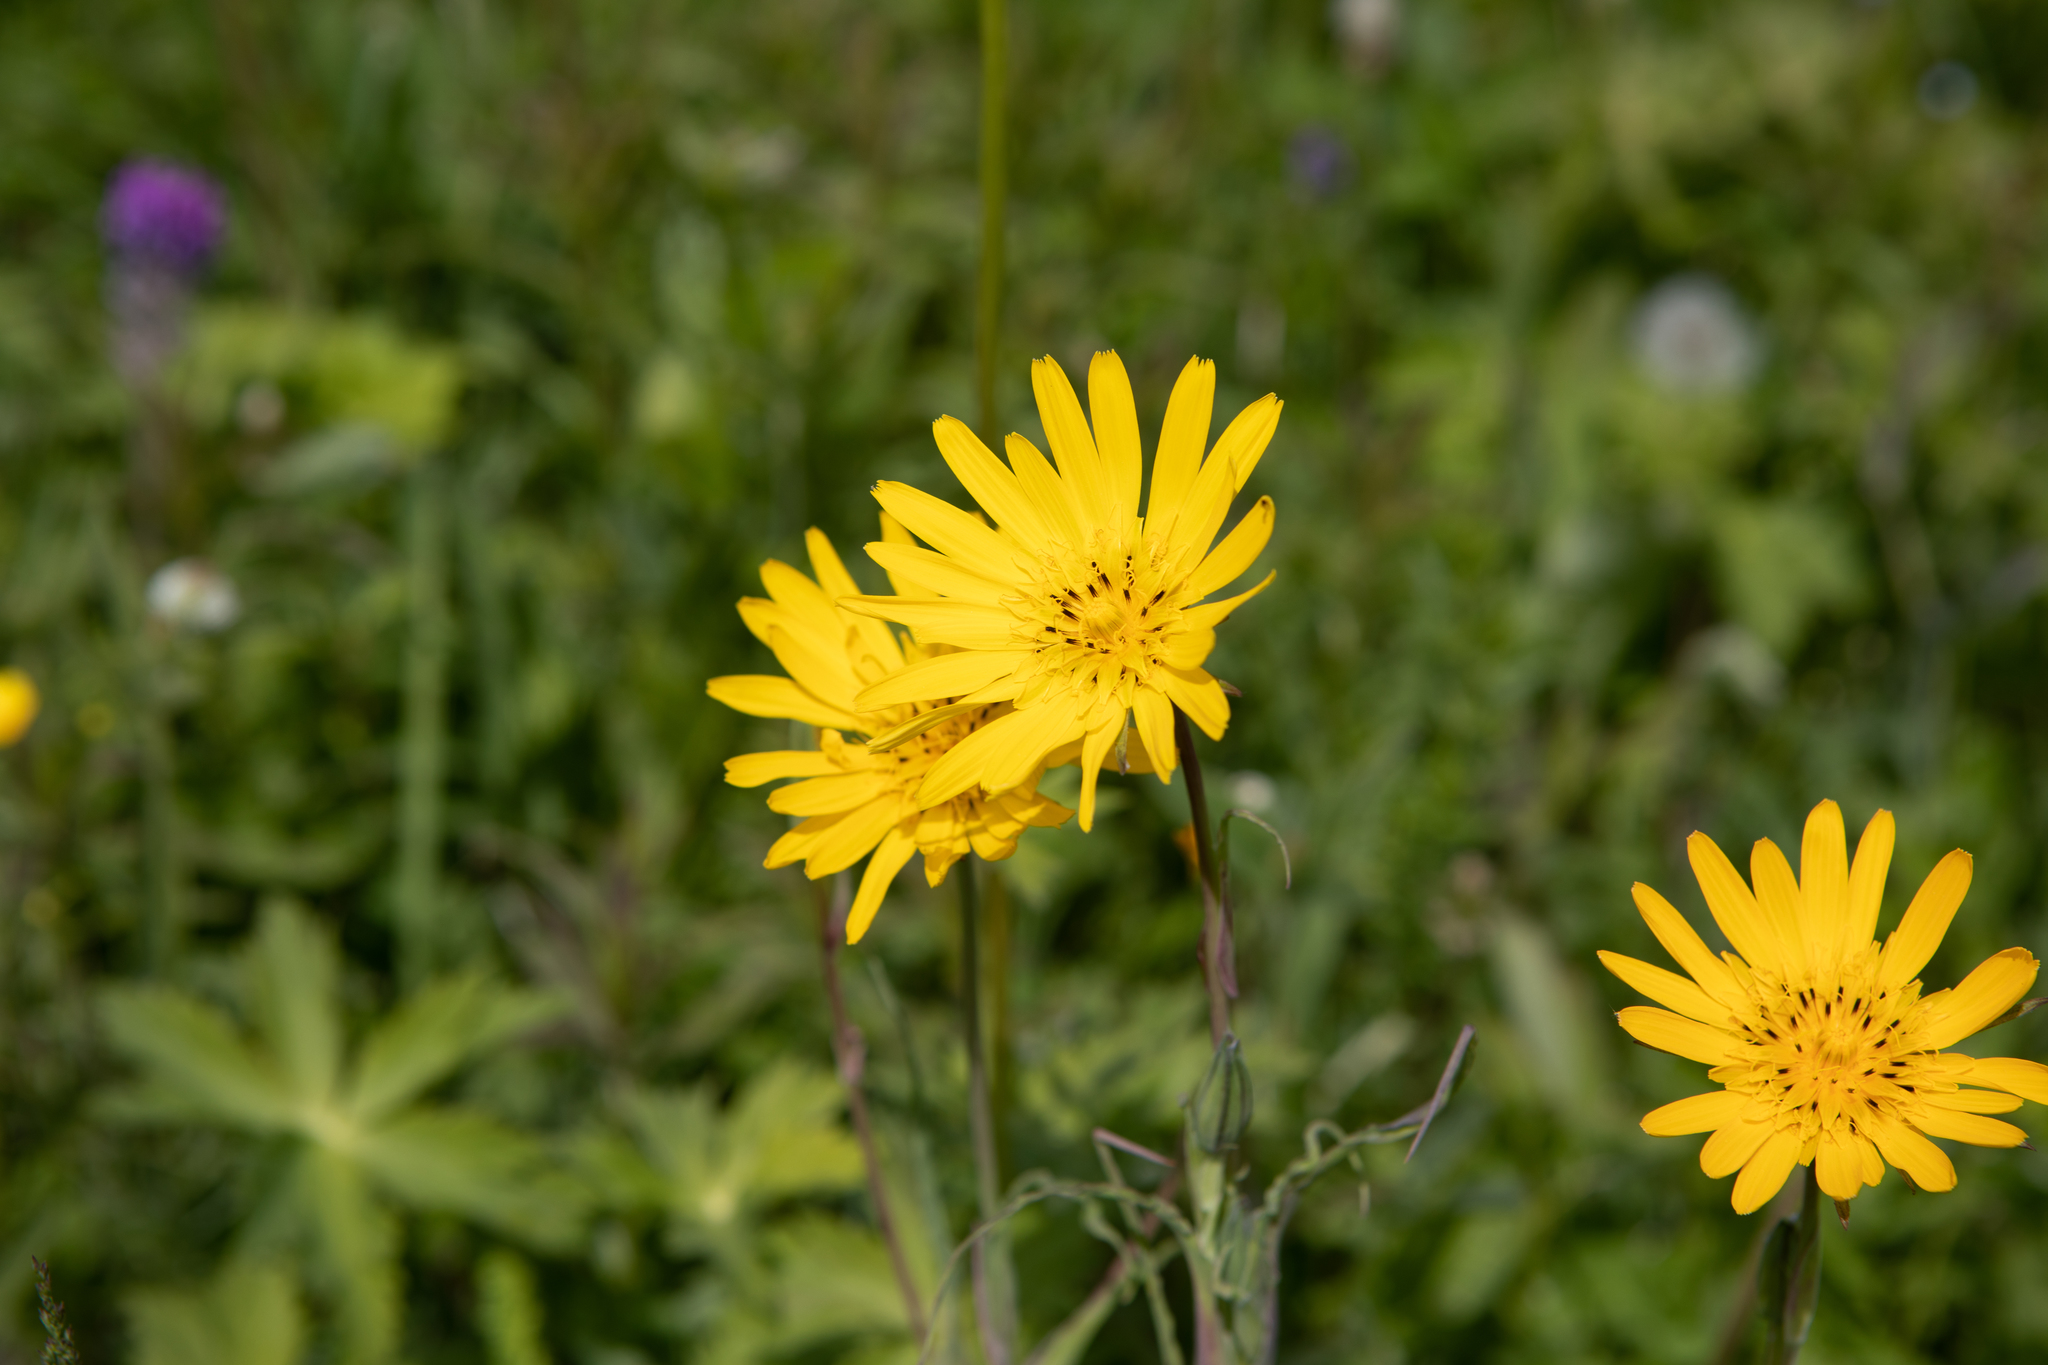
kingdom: Plantae
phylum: Tracheophyta
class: Magnoliopsida
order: Asterales
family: Asteraceae
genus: Tragopogon
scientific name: Tragopogon orientalis
